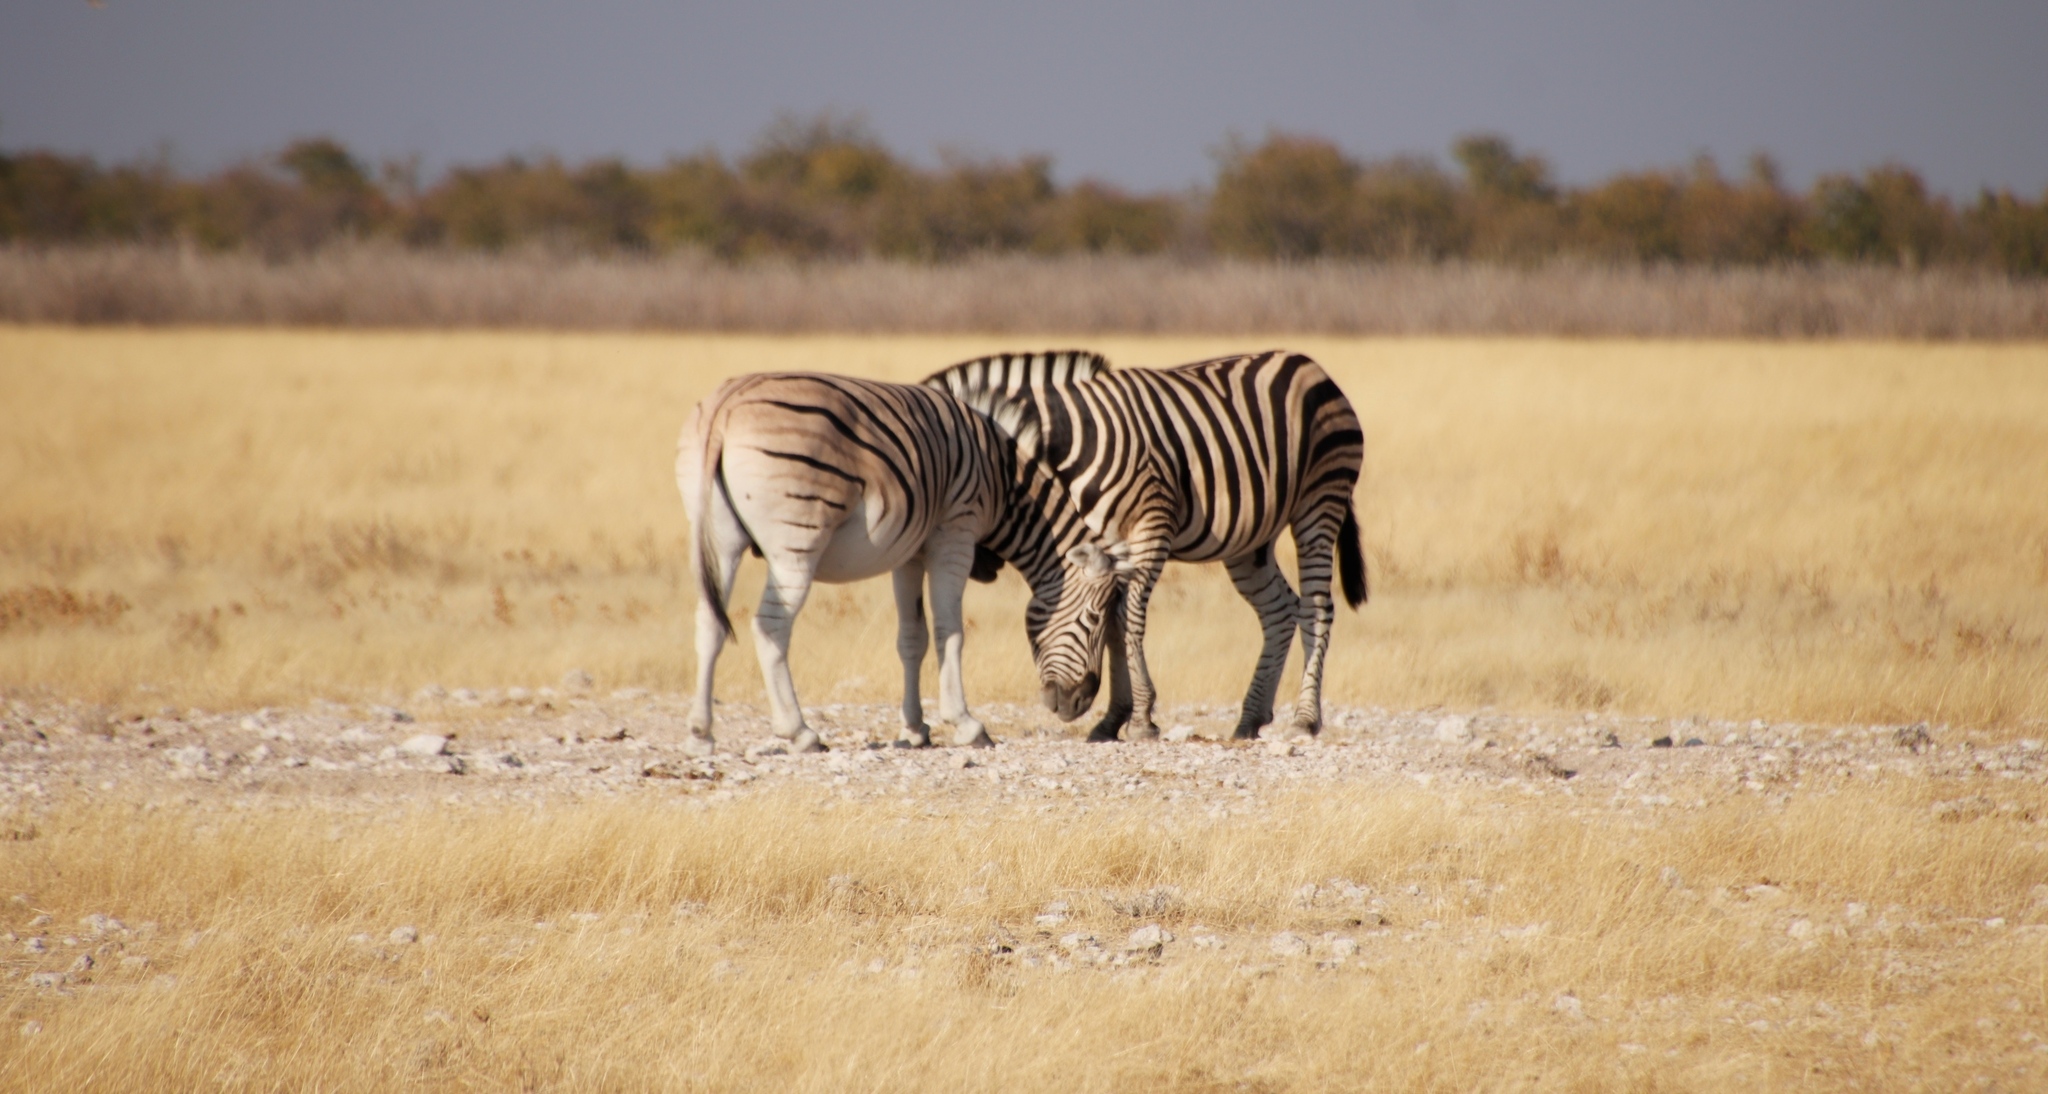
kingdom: Animalia
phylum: Chordata
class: Mammalia
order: Perissodactyla
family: Equidae
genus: Equus
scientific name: Equus quagga
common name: Plains zebra
